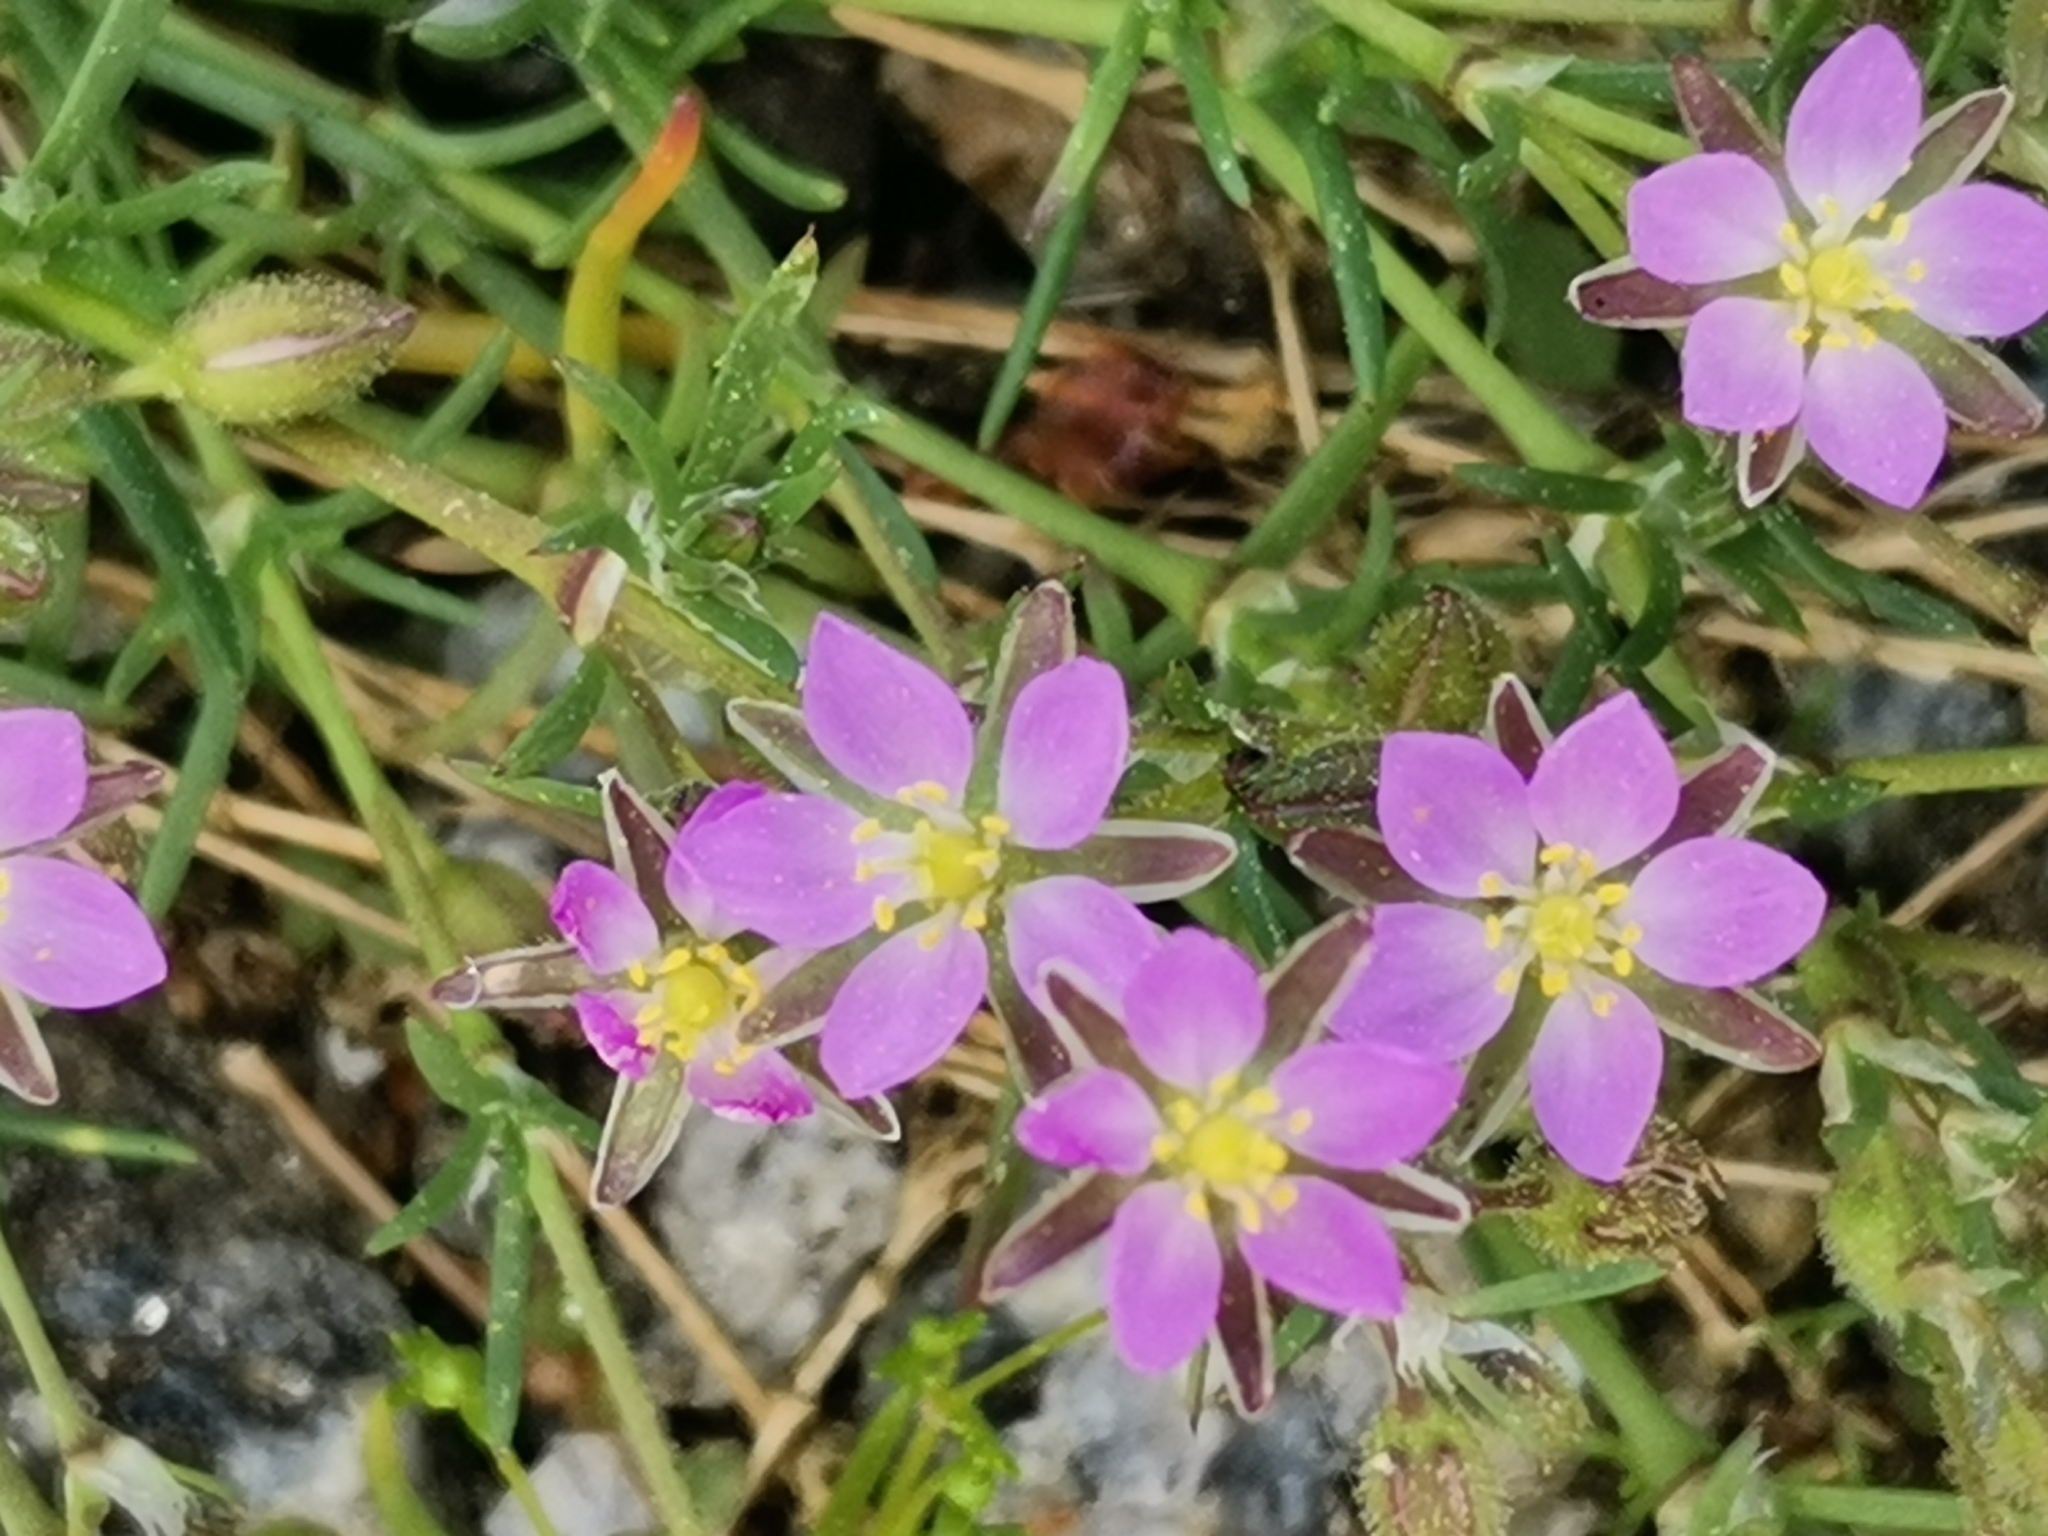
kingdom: Plantae
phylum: Tracheophyta
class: Magnoliopsida
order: Caryophyllales
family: Caryophyllaceae
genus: Spergularia
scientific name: Spergularia rubra
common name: Red sand-spurrey
